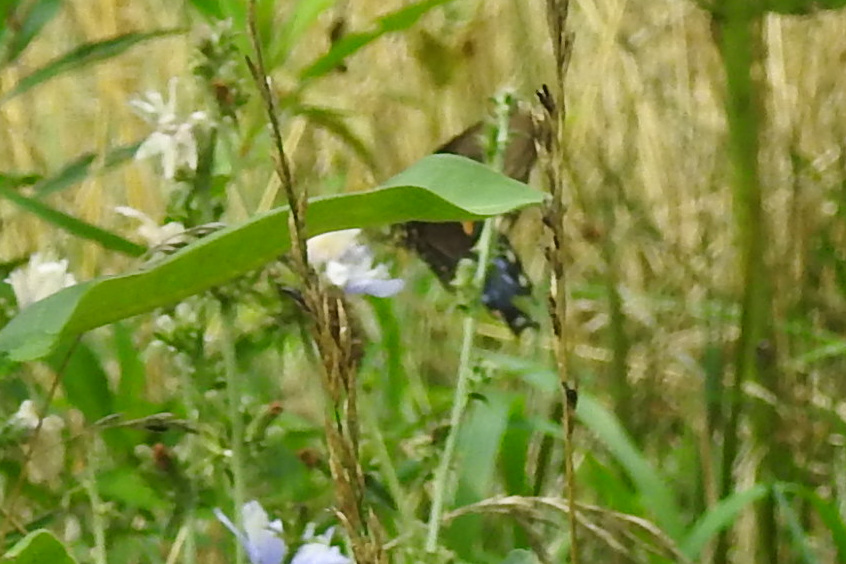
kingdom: Animalia
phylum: Arthropoda
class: Insecta
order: Lepidoptera
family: Papilionidae
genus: Papilio
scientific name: Papilio troilus
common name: Spicebush swallowtail
